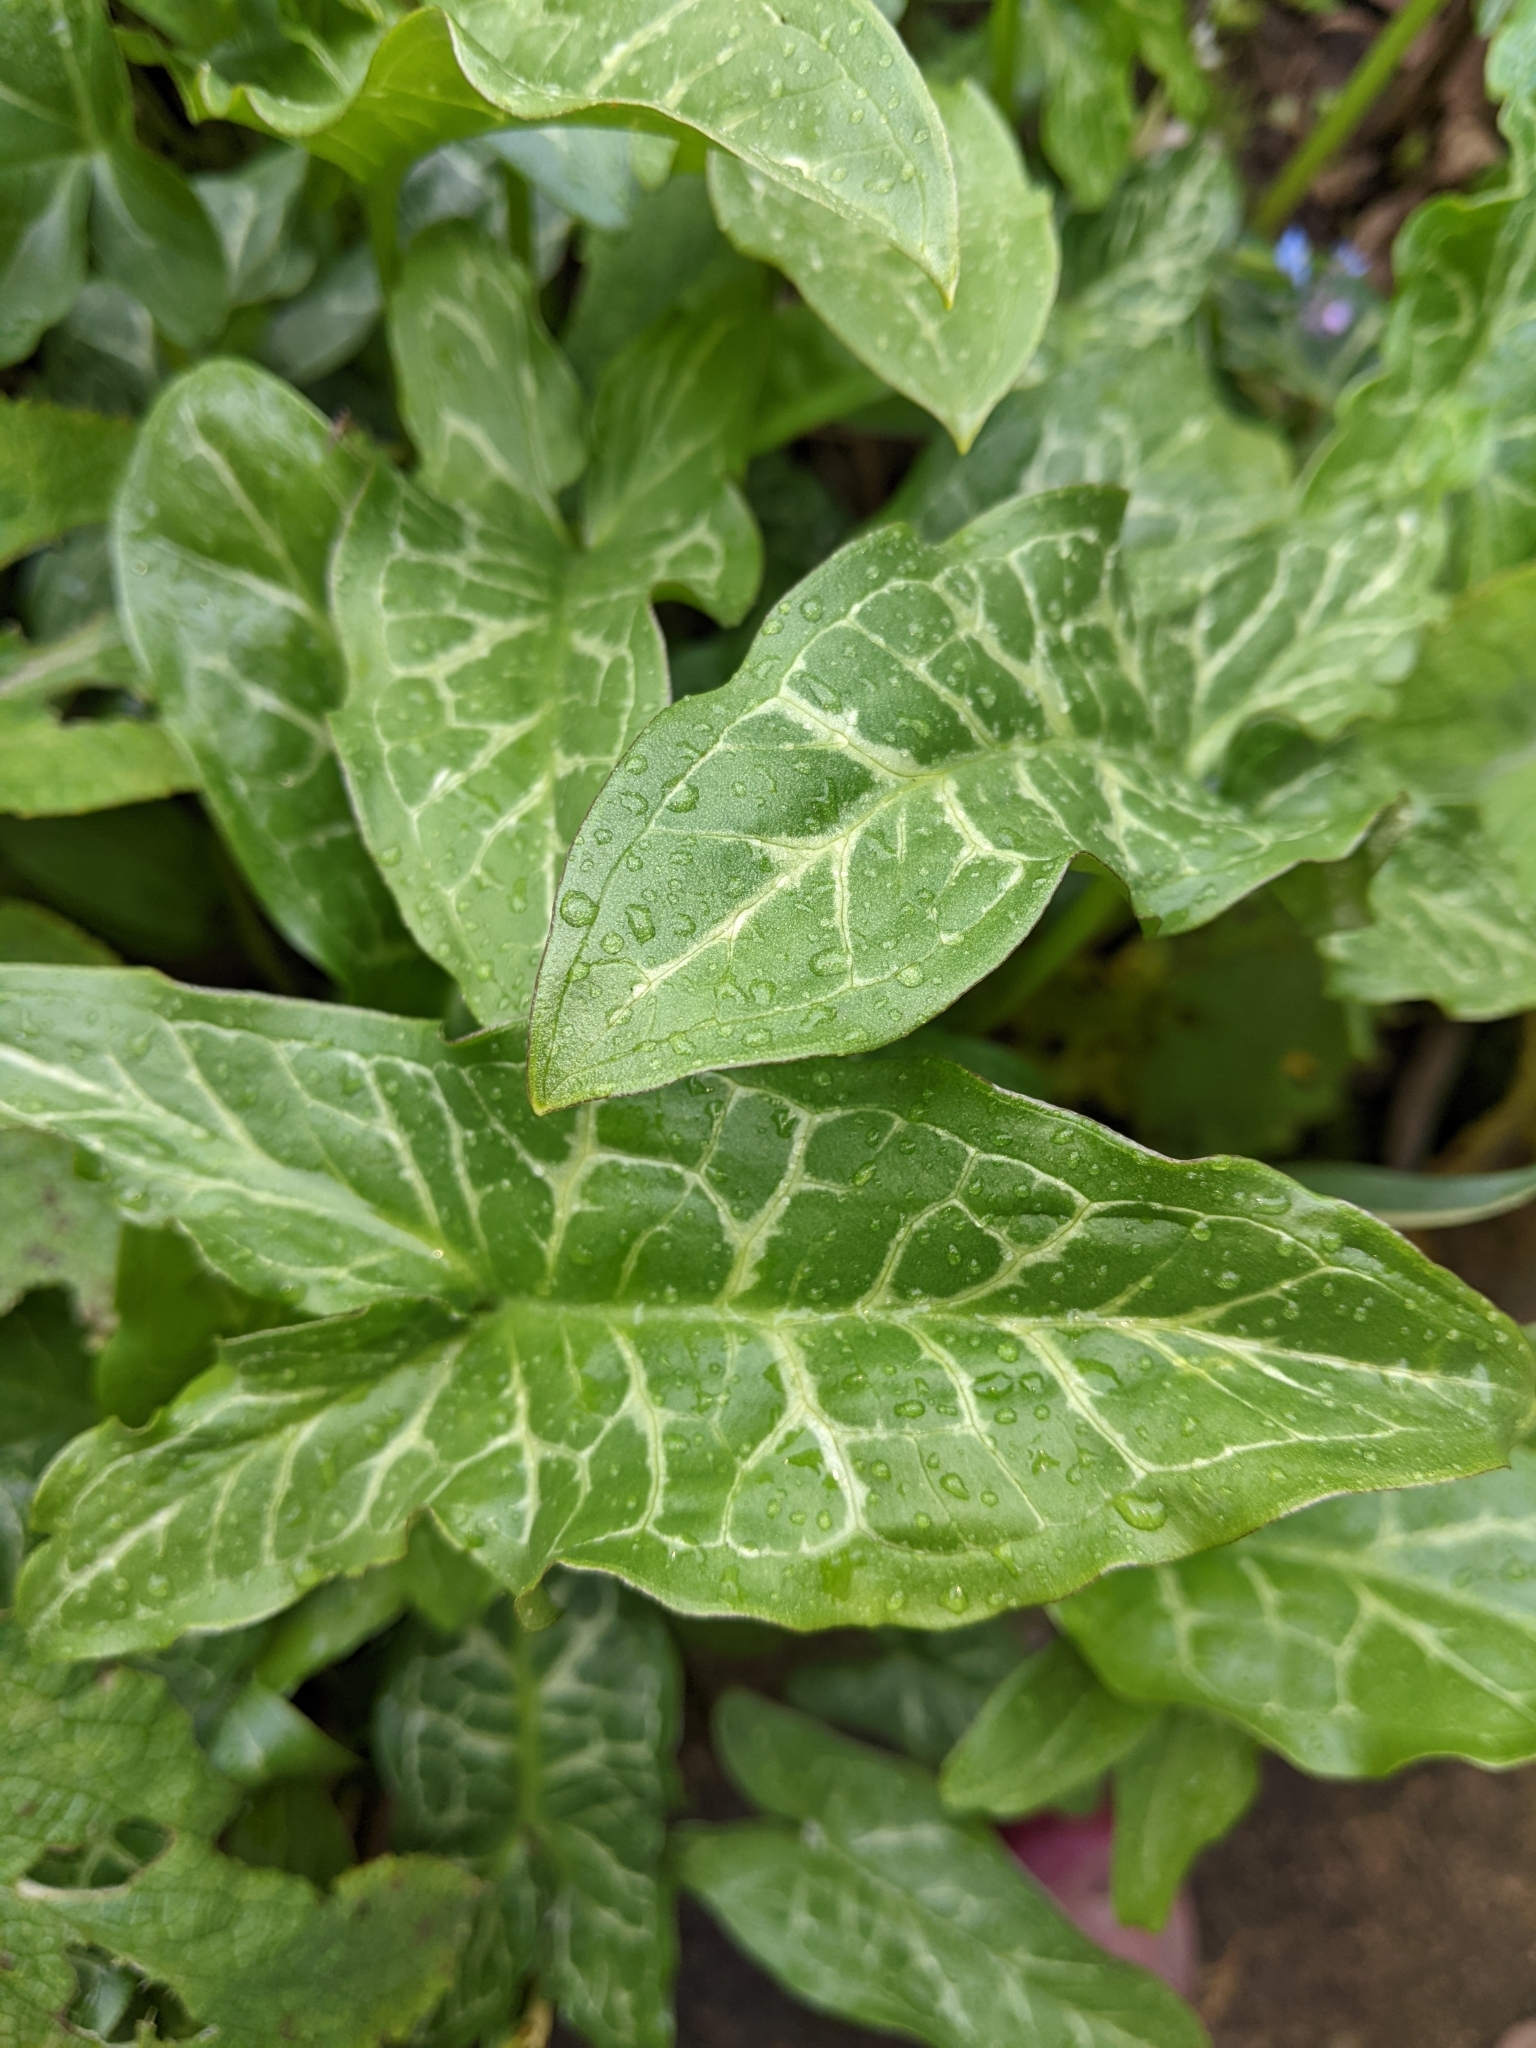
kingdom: Plantae
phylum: Tracheophyta
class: Liliopsida
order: Alismatales
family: Araceae
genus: Arum
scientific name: Arum italicum
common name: Italian lords-and-ladies
